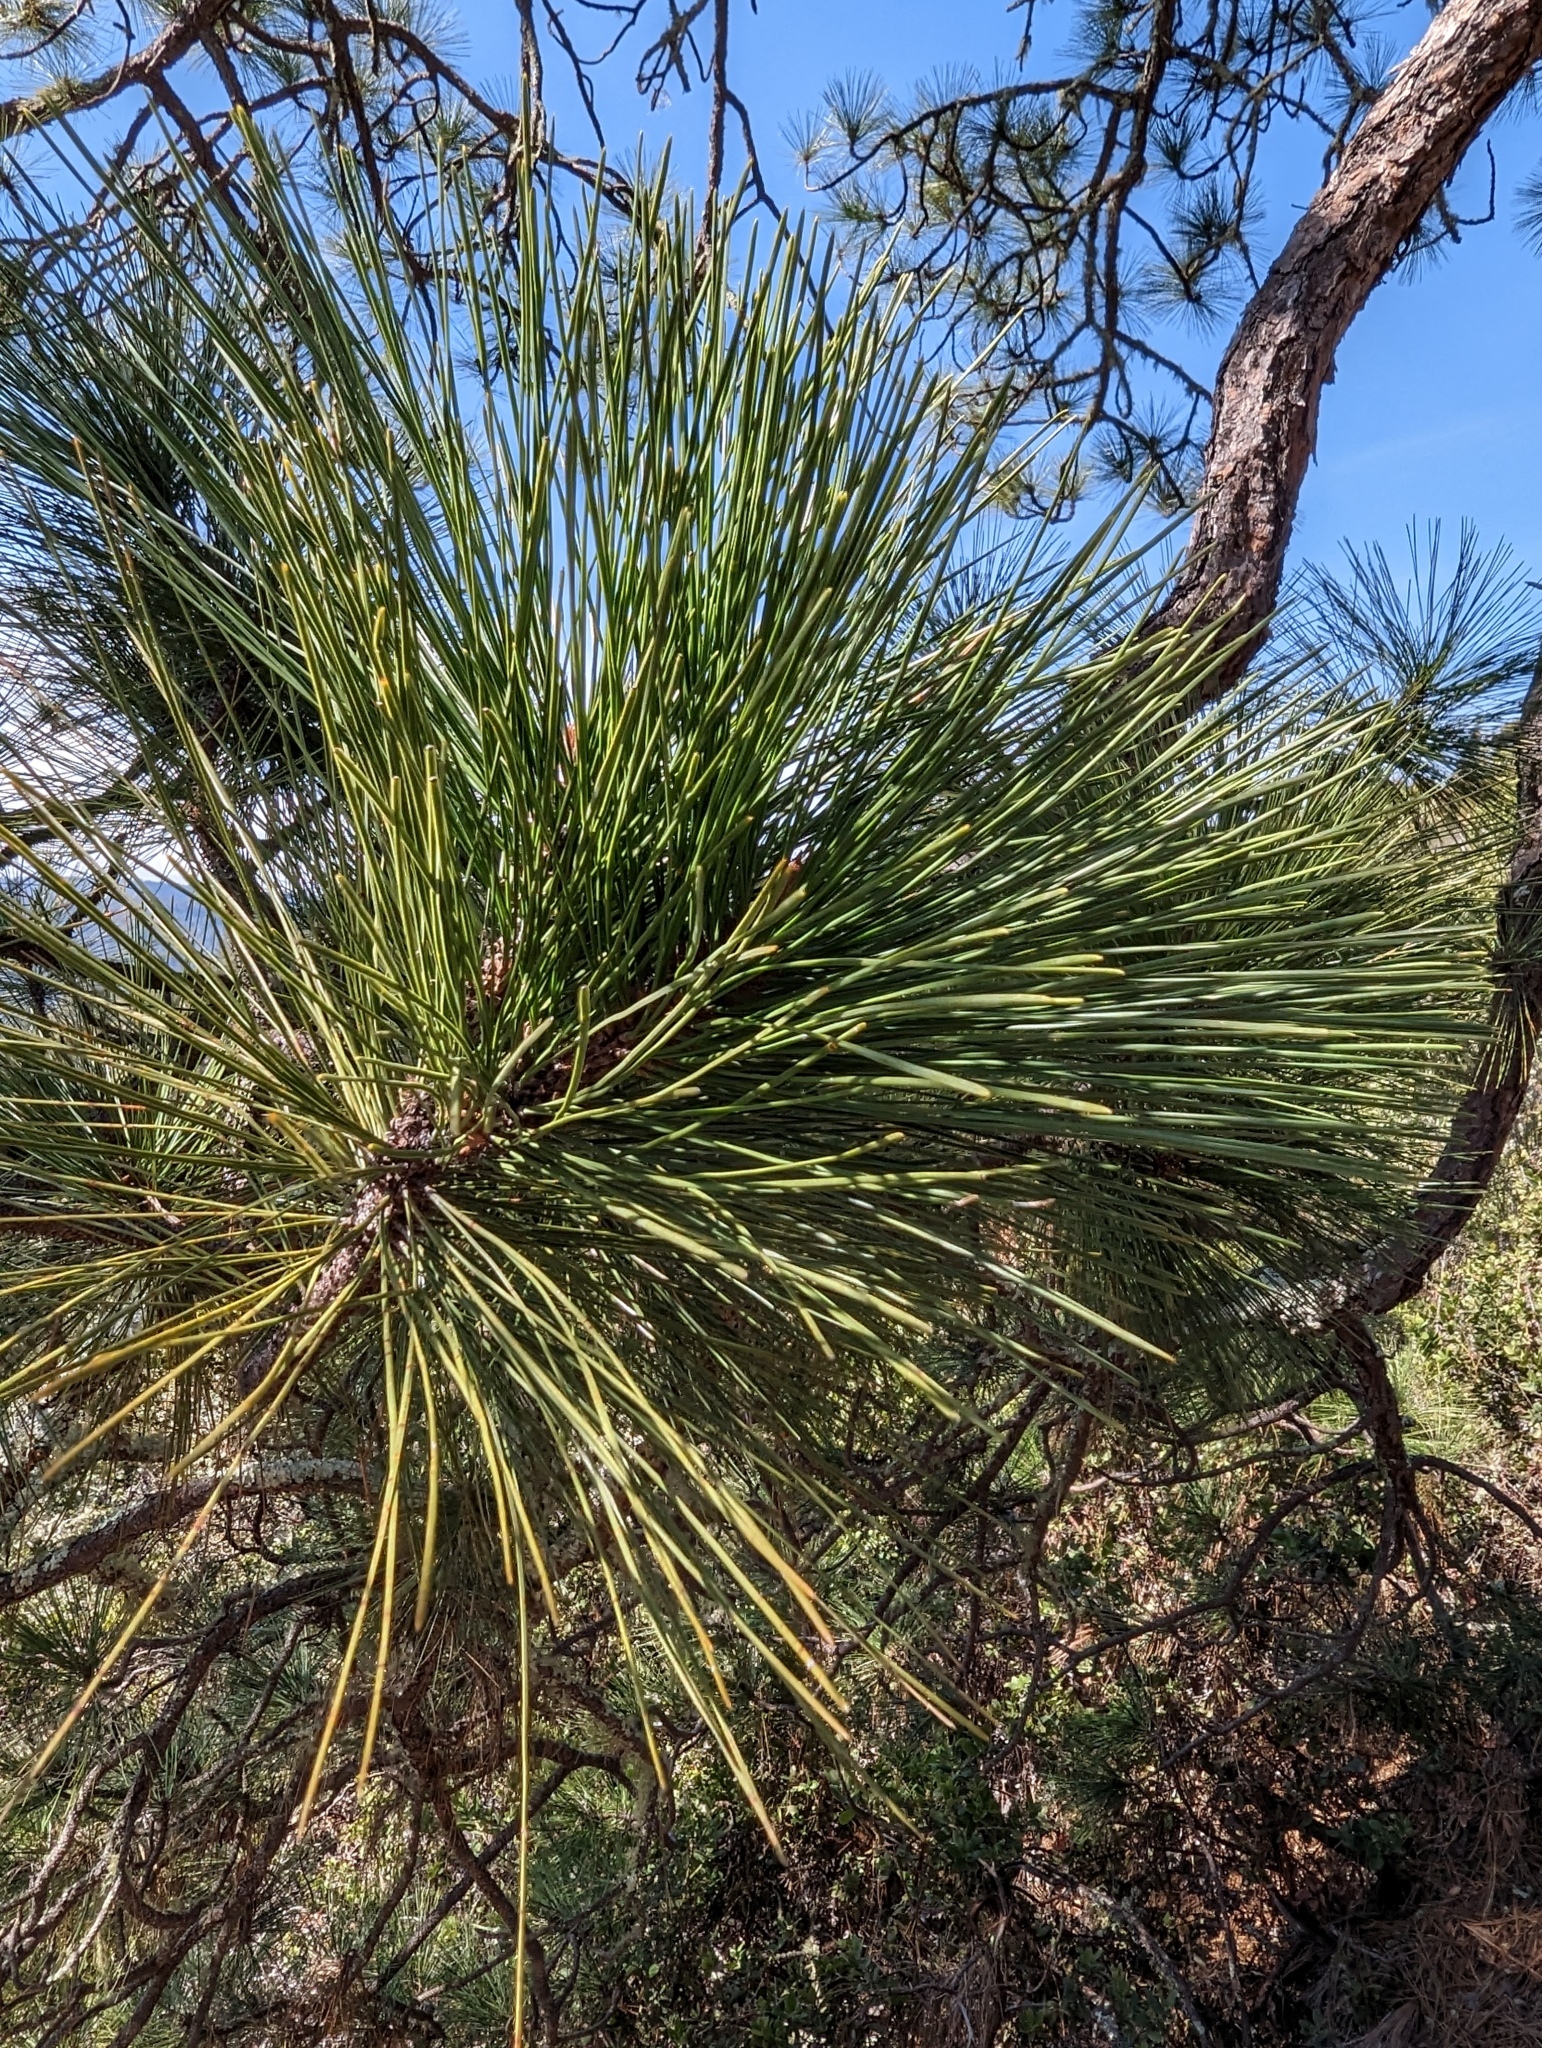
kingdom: Plantae
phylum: Tracheophyta
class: Pinopsida
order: Pinales
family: Pinaceae
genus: Pinus
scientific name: Pinus ponderosa
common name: Western yellow-pine
